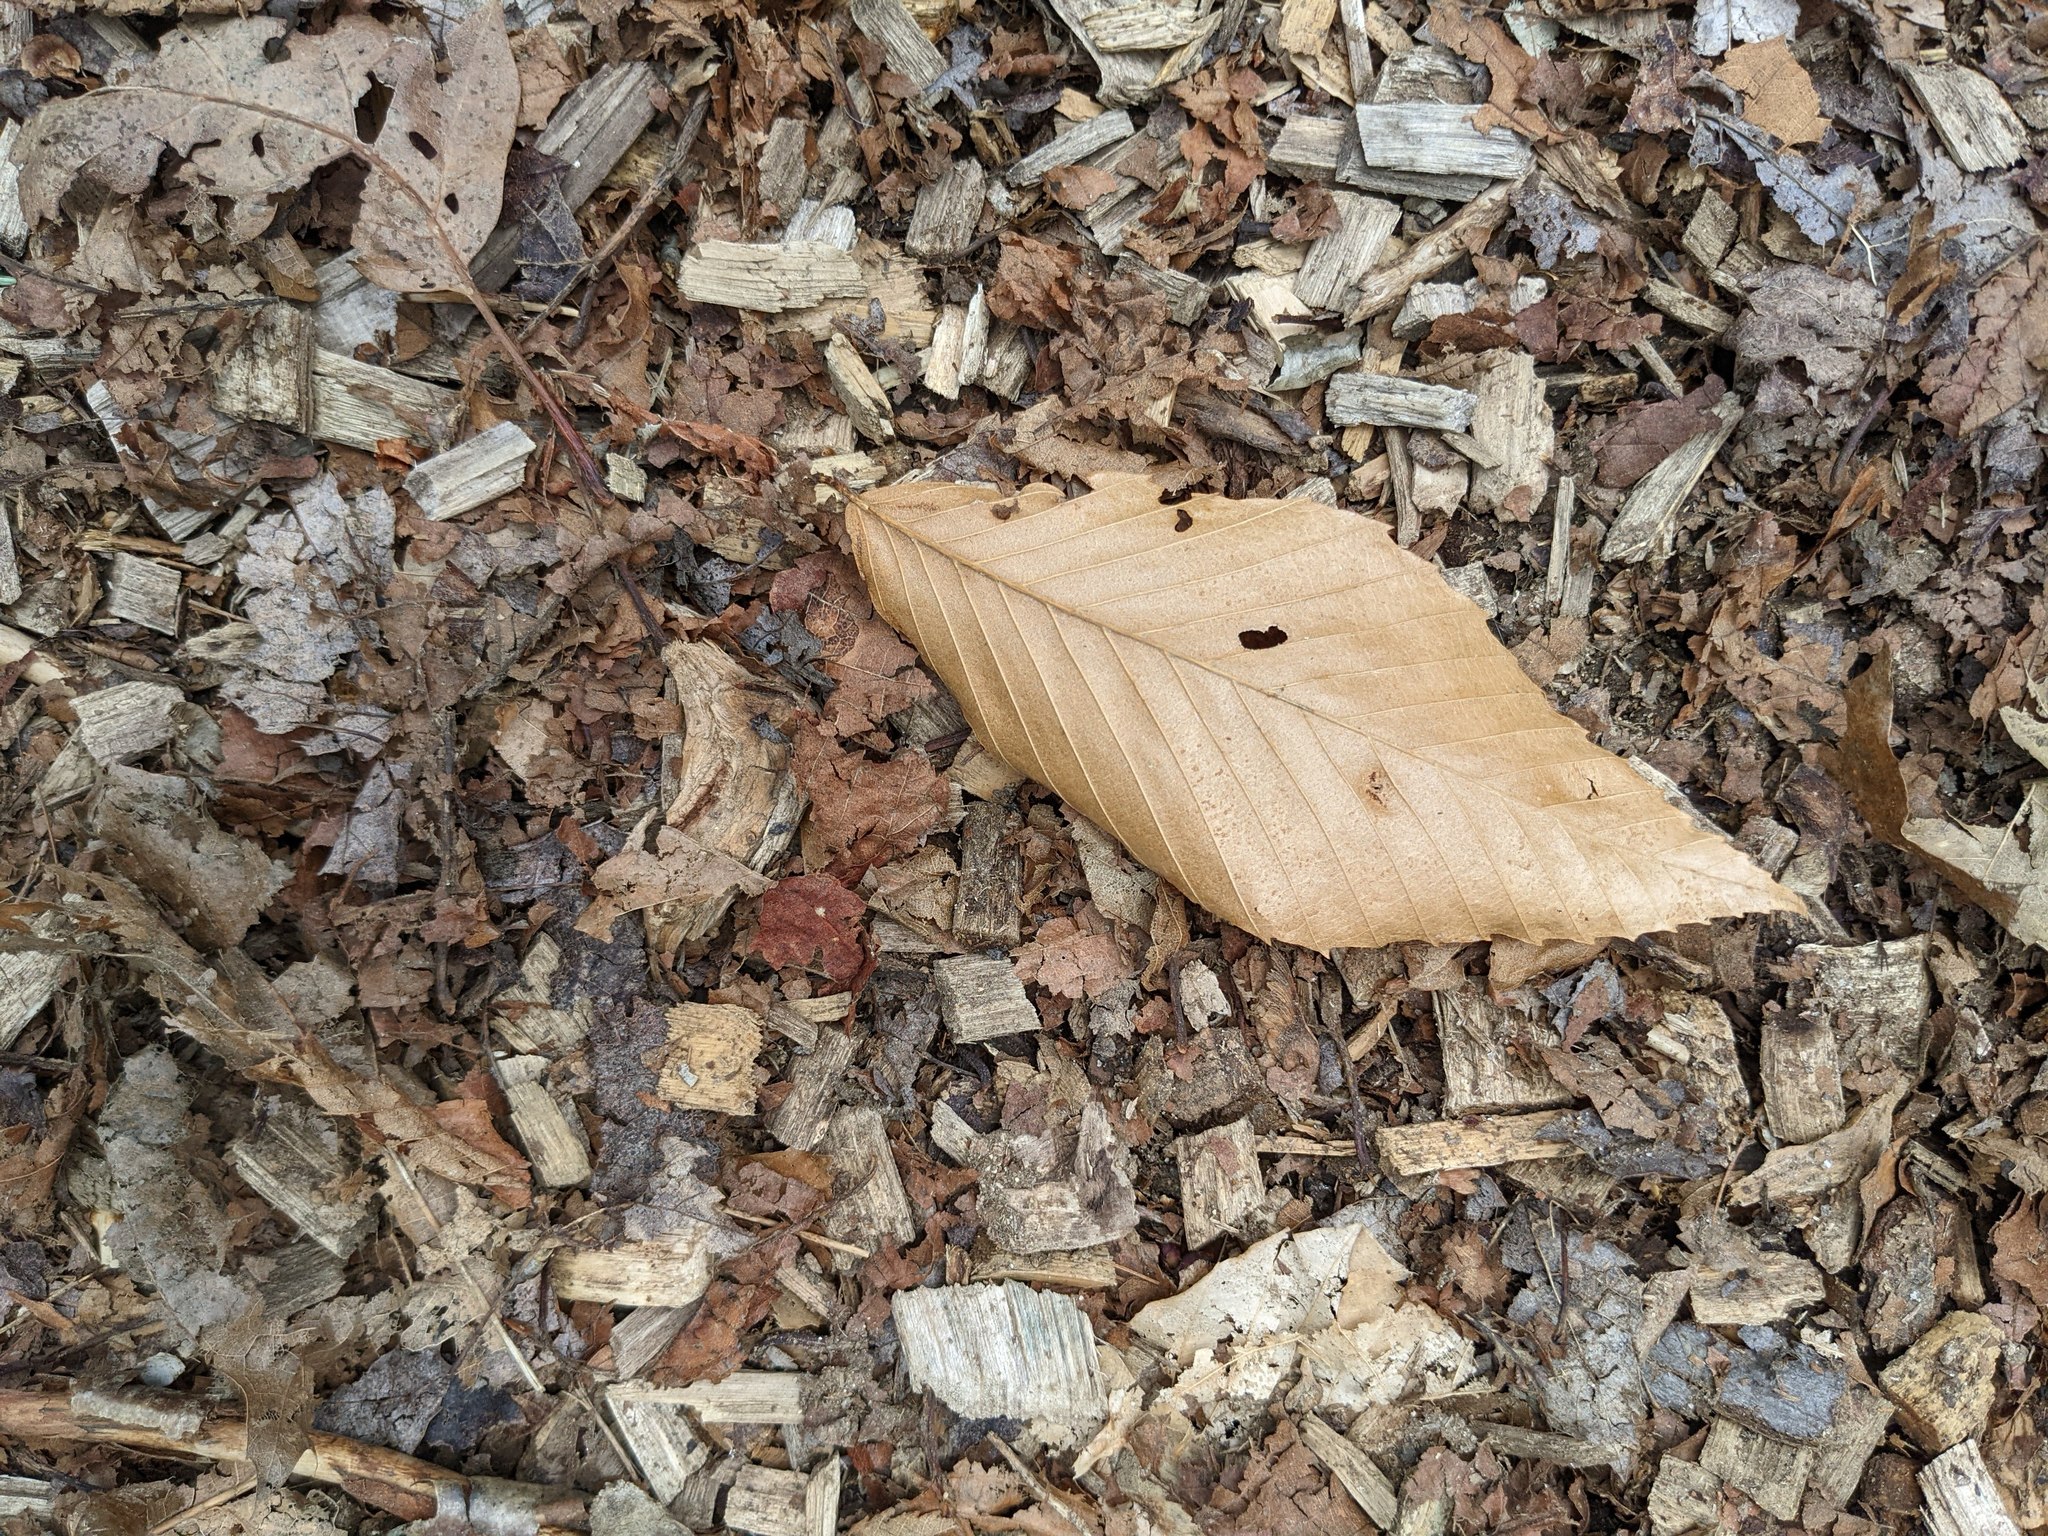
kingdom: Plantae
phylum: Tracheophyta
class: Magnoliopsida
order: Fagales
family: Fagaceae
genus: Fagus
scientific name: Fagus grandifolia
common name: American beech
